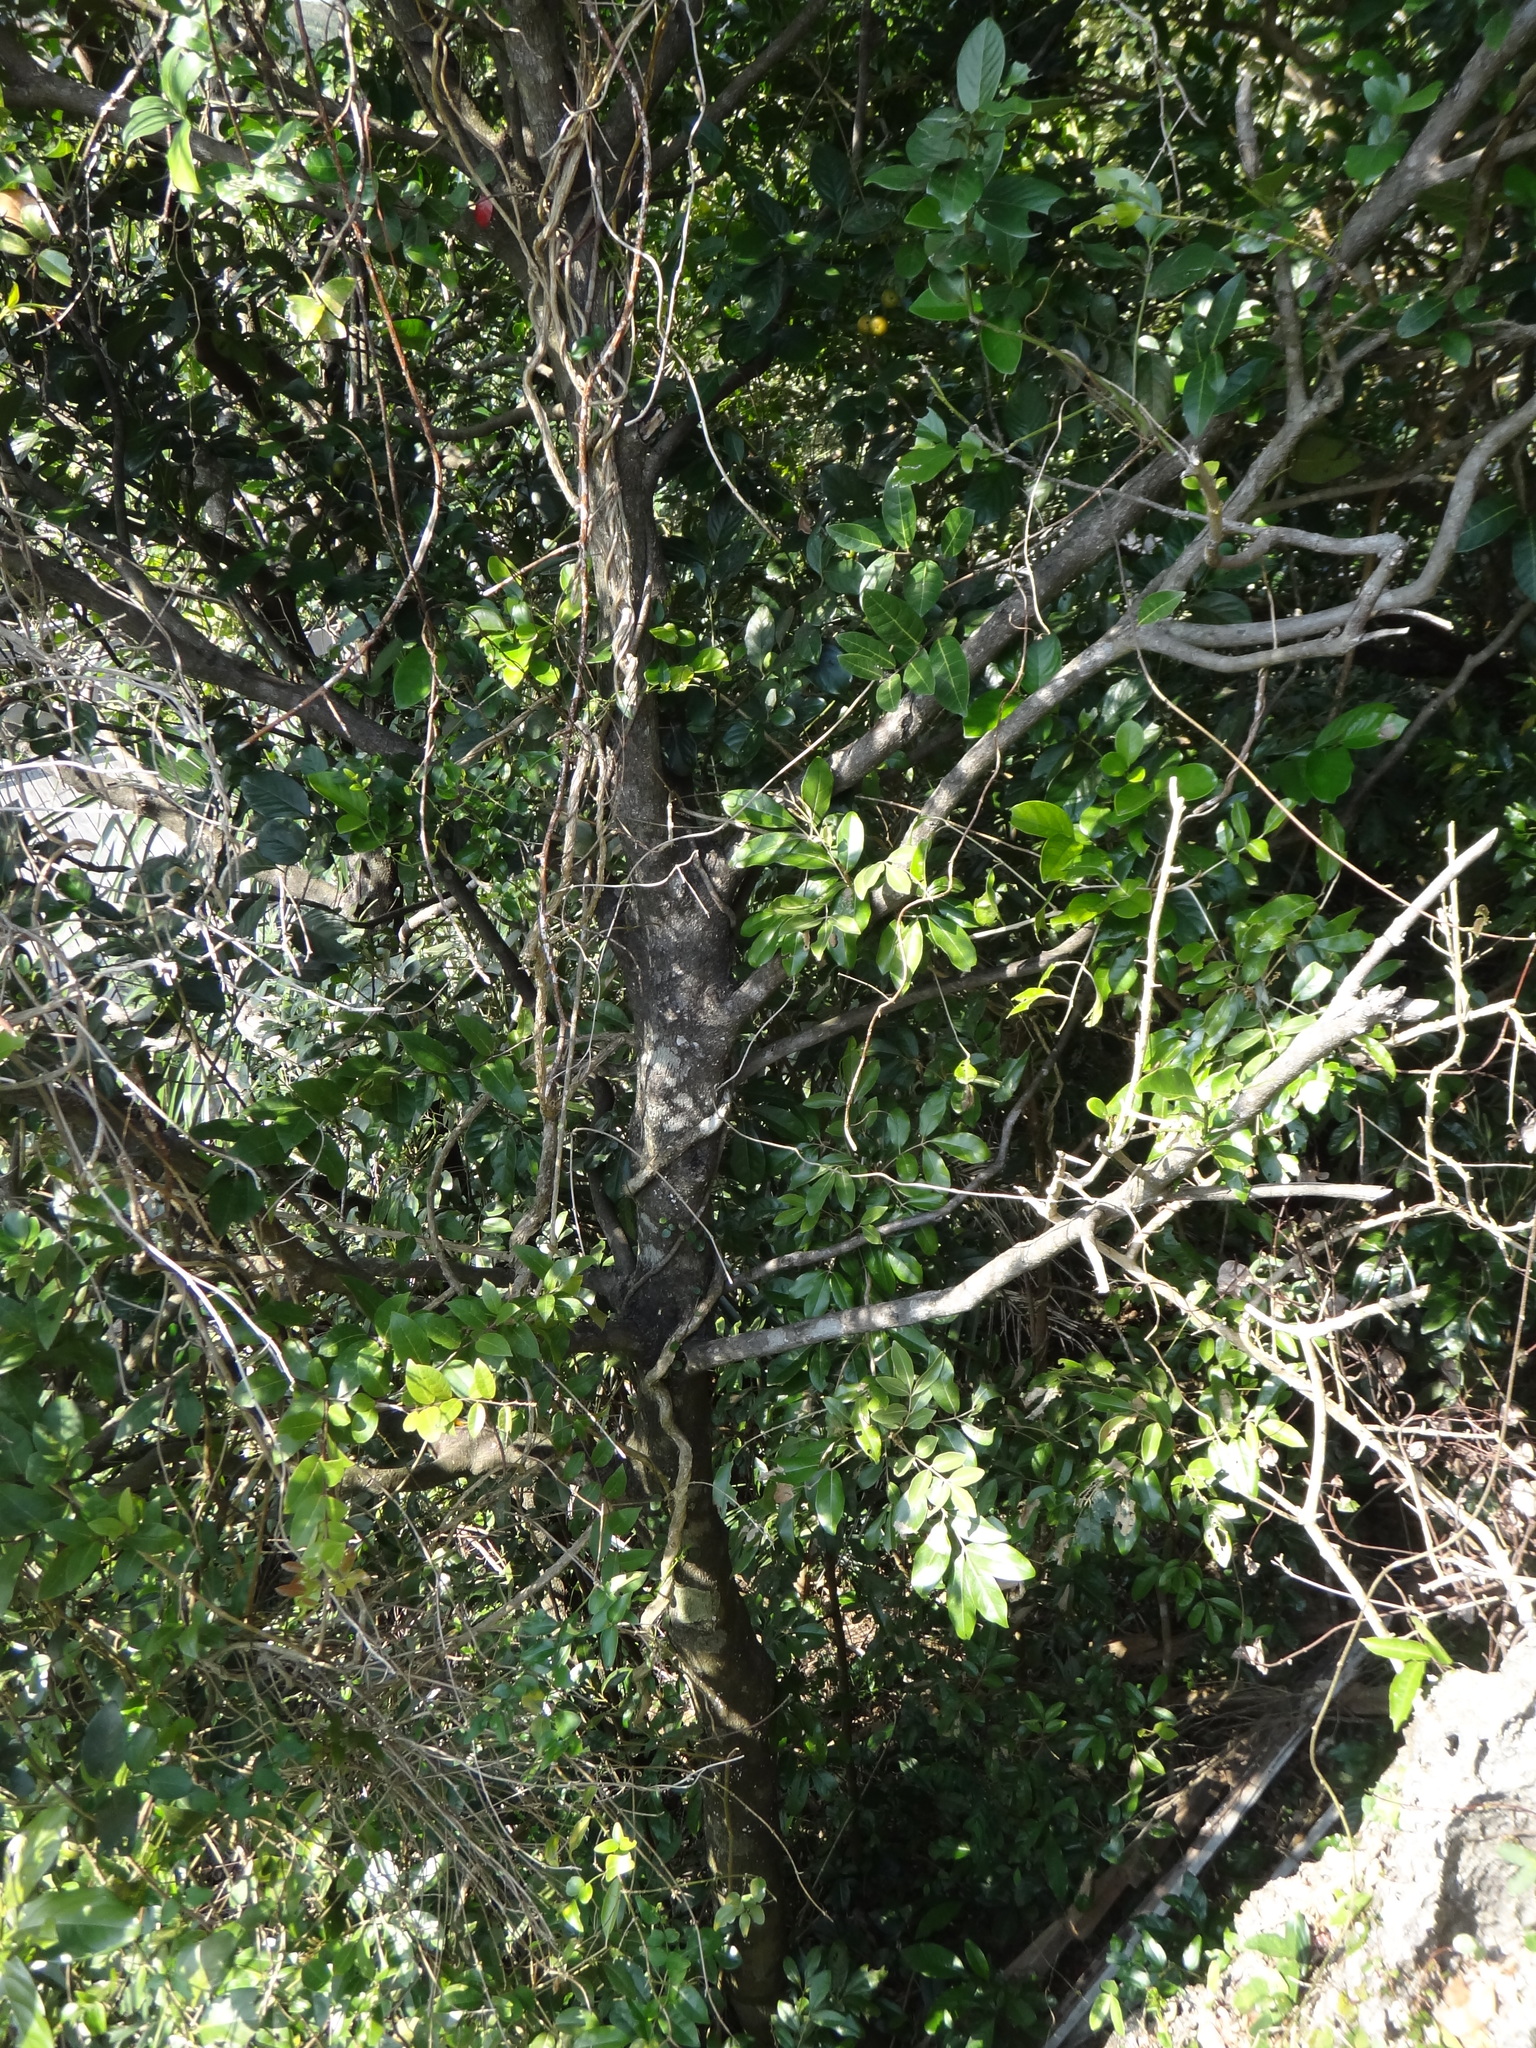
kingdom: Plantae
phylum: Tracheophyta
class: Magnoliopsida
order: Ericales
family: Ebenaceae
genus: Diospyros
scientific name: Diospyros maritima
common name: Malaysian persimmon
